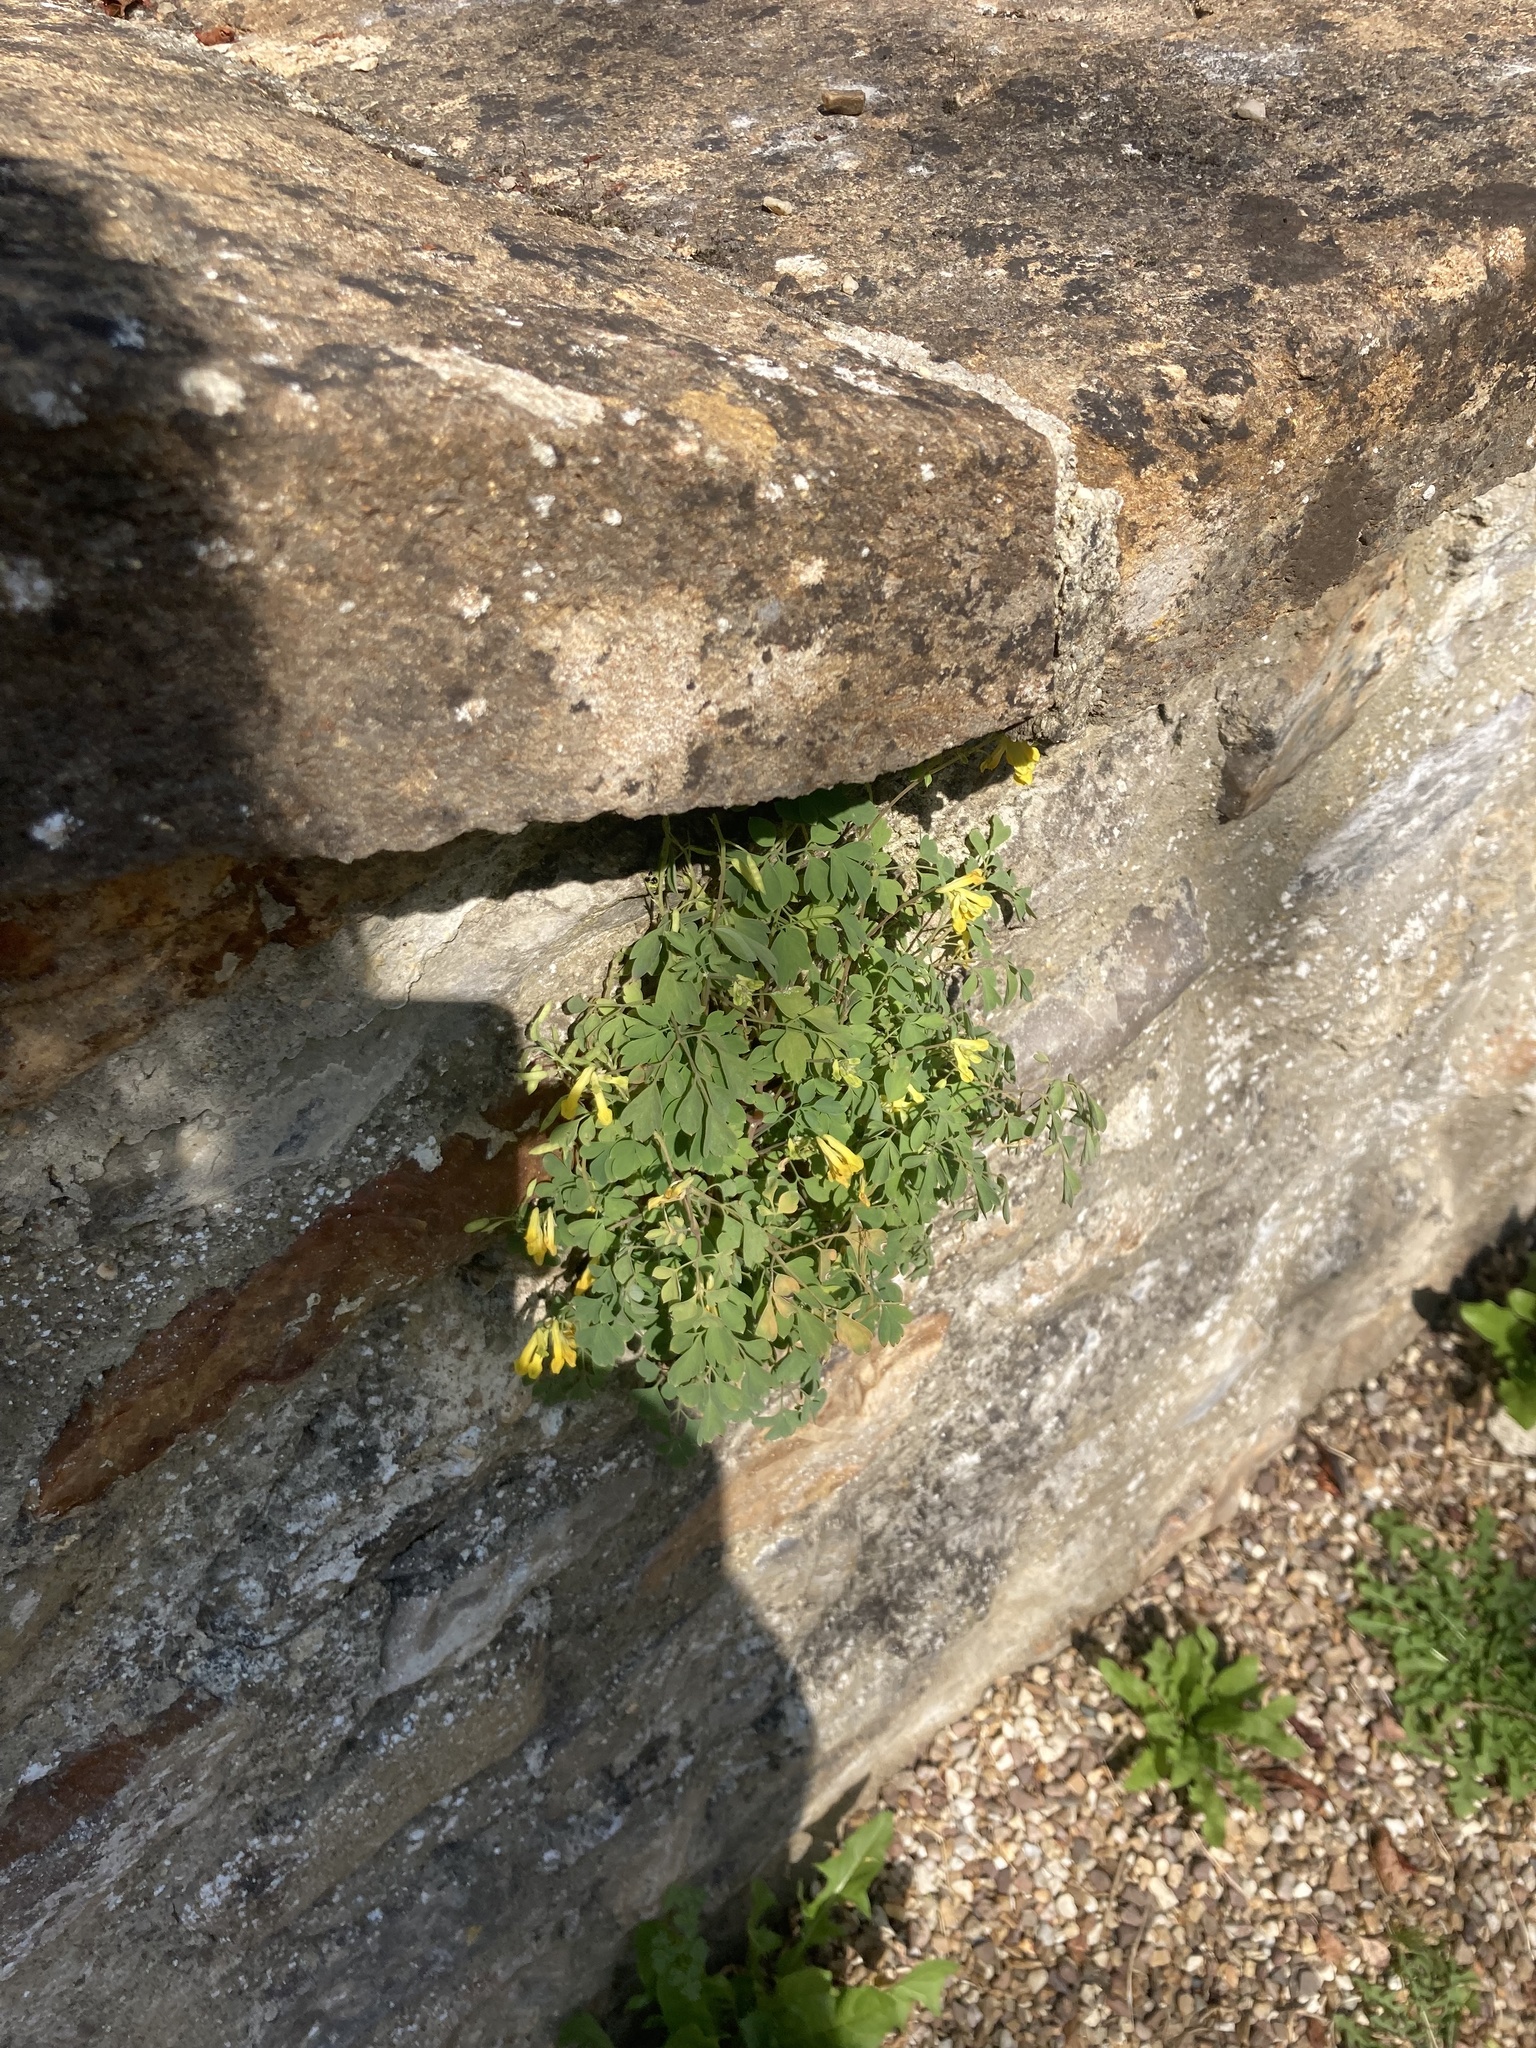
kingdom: Plantae
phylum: Tracheophyta
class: Magnoliopsida
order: Ranunculales
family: Papaveraceae
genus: Pseudofumaria
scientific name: Pseudofumaria lutea
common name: Yellow corydalis
